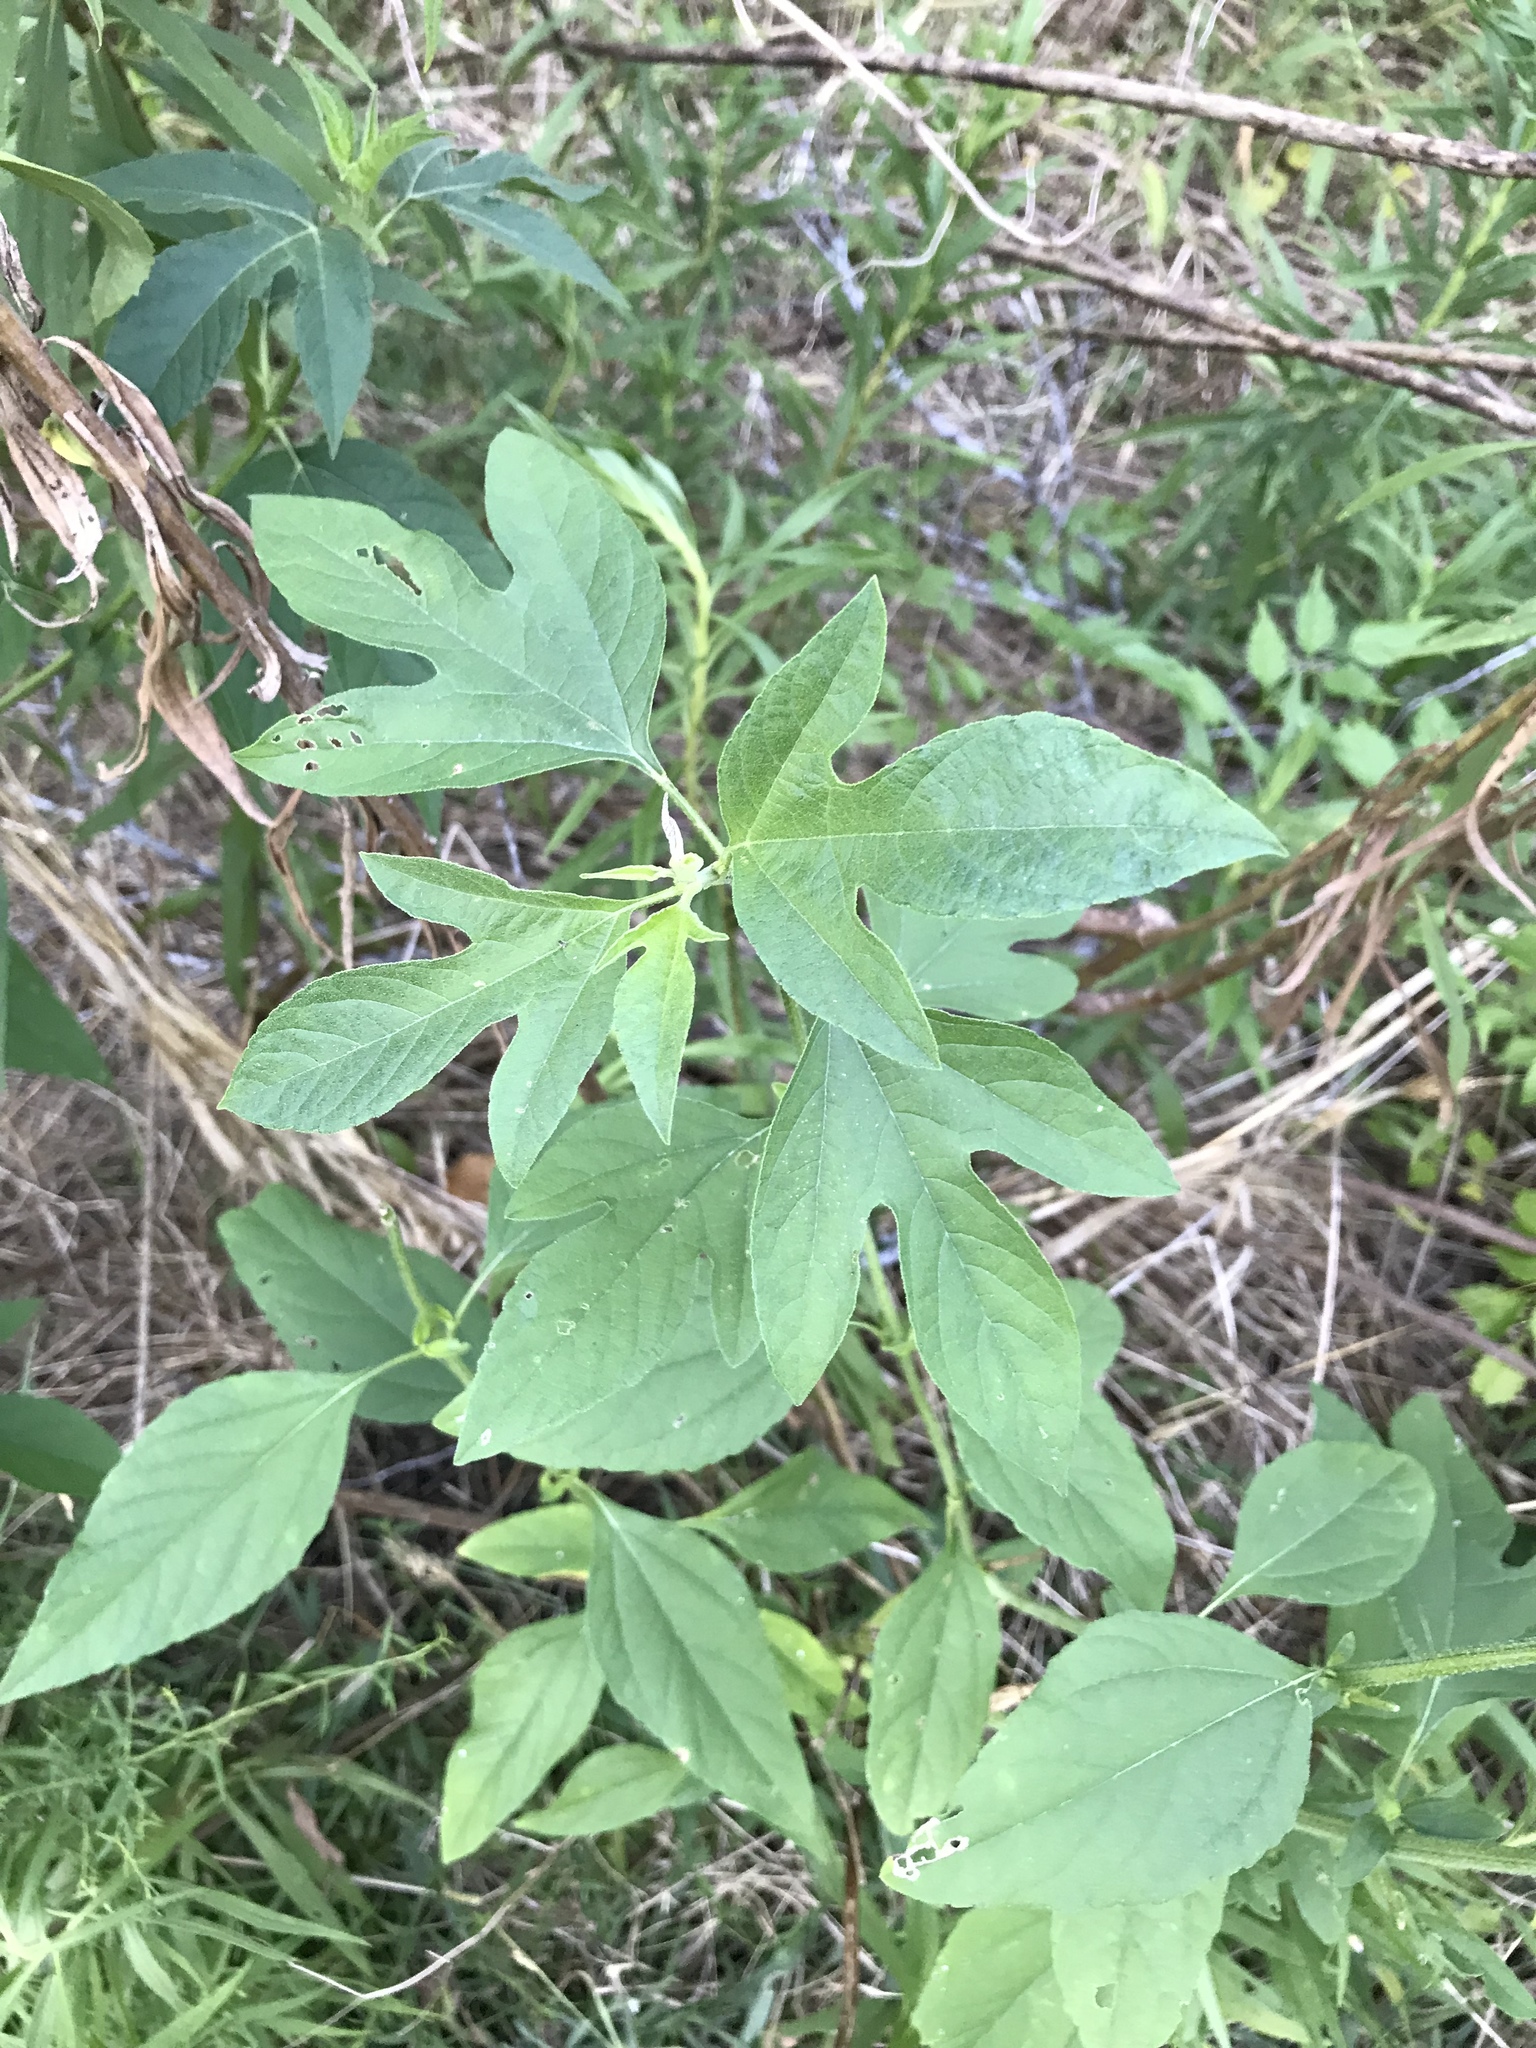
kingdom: Plantae
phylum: Tracheophyta
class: Magnoliopsida
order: Asterales
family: Asteraceae
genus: Ambrosia
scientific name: Ambrosia trifida
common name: Giant ragweed
